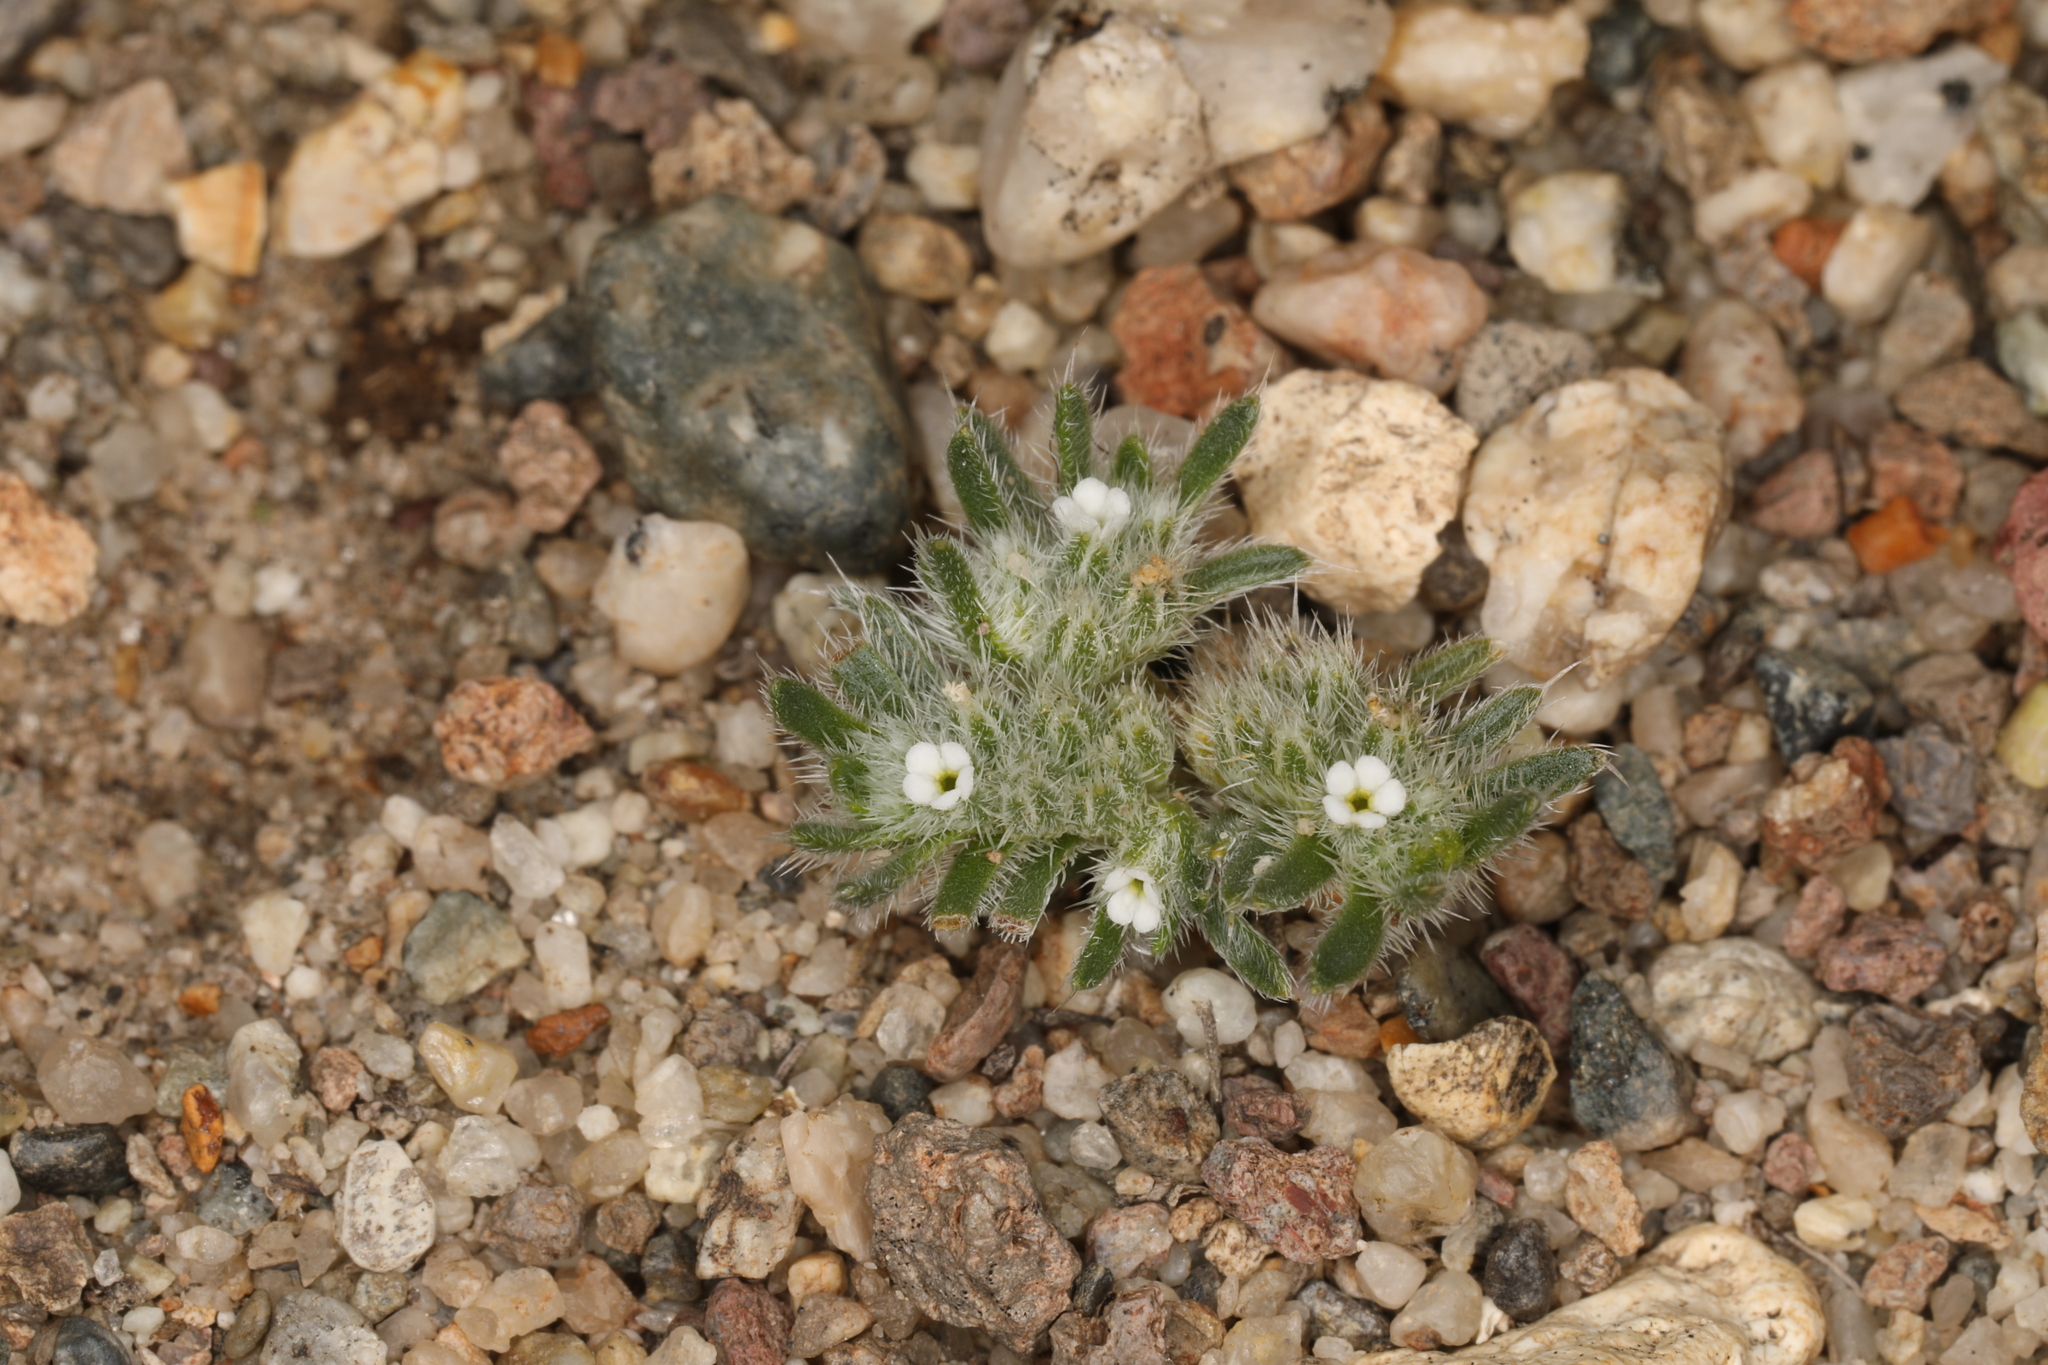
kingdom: Plantae
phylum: Tracheophyta
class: Magnoliopsida
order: Boraginales
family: Boraginaceae
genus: Greeneocharis
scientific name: Greeneocharis circumscissa
